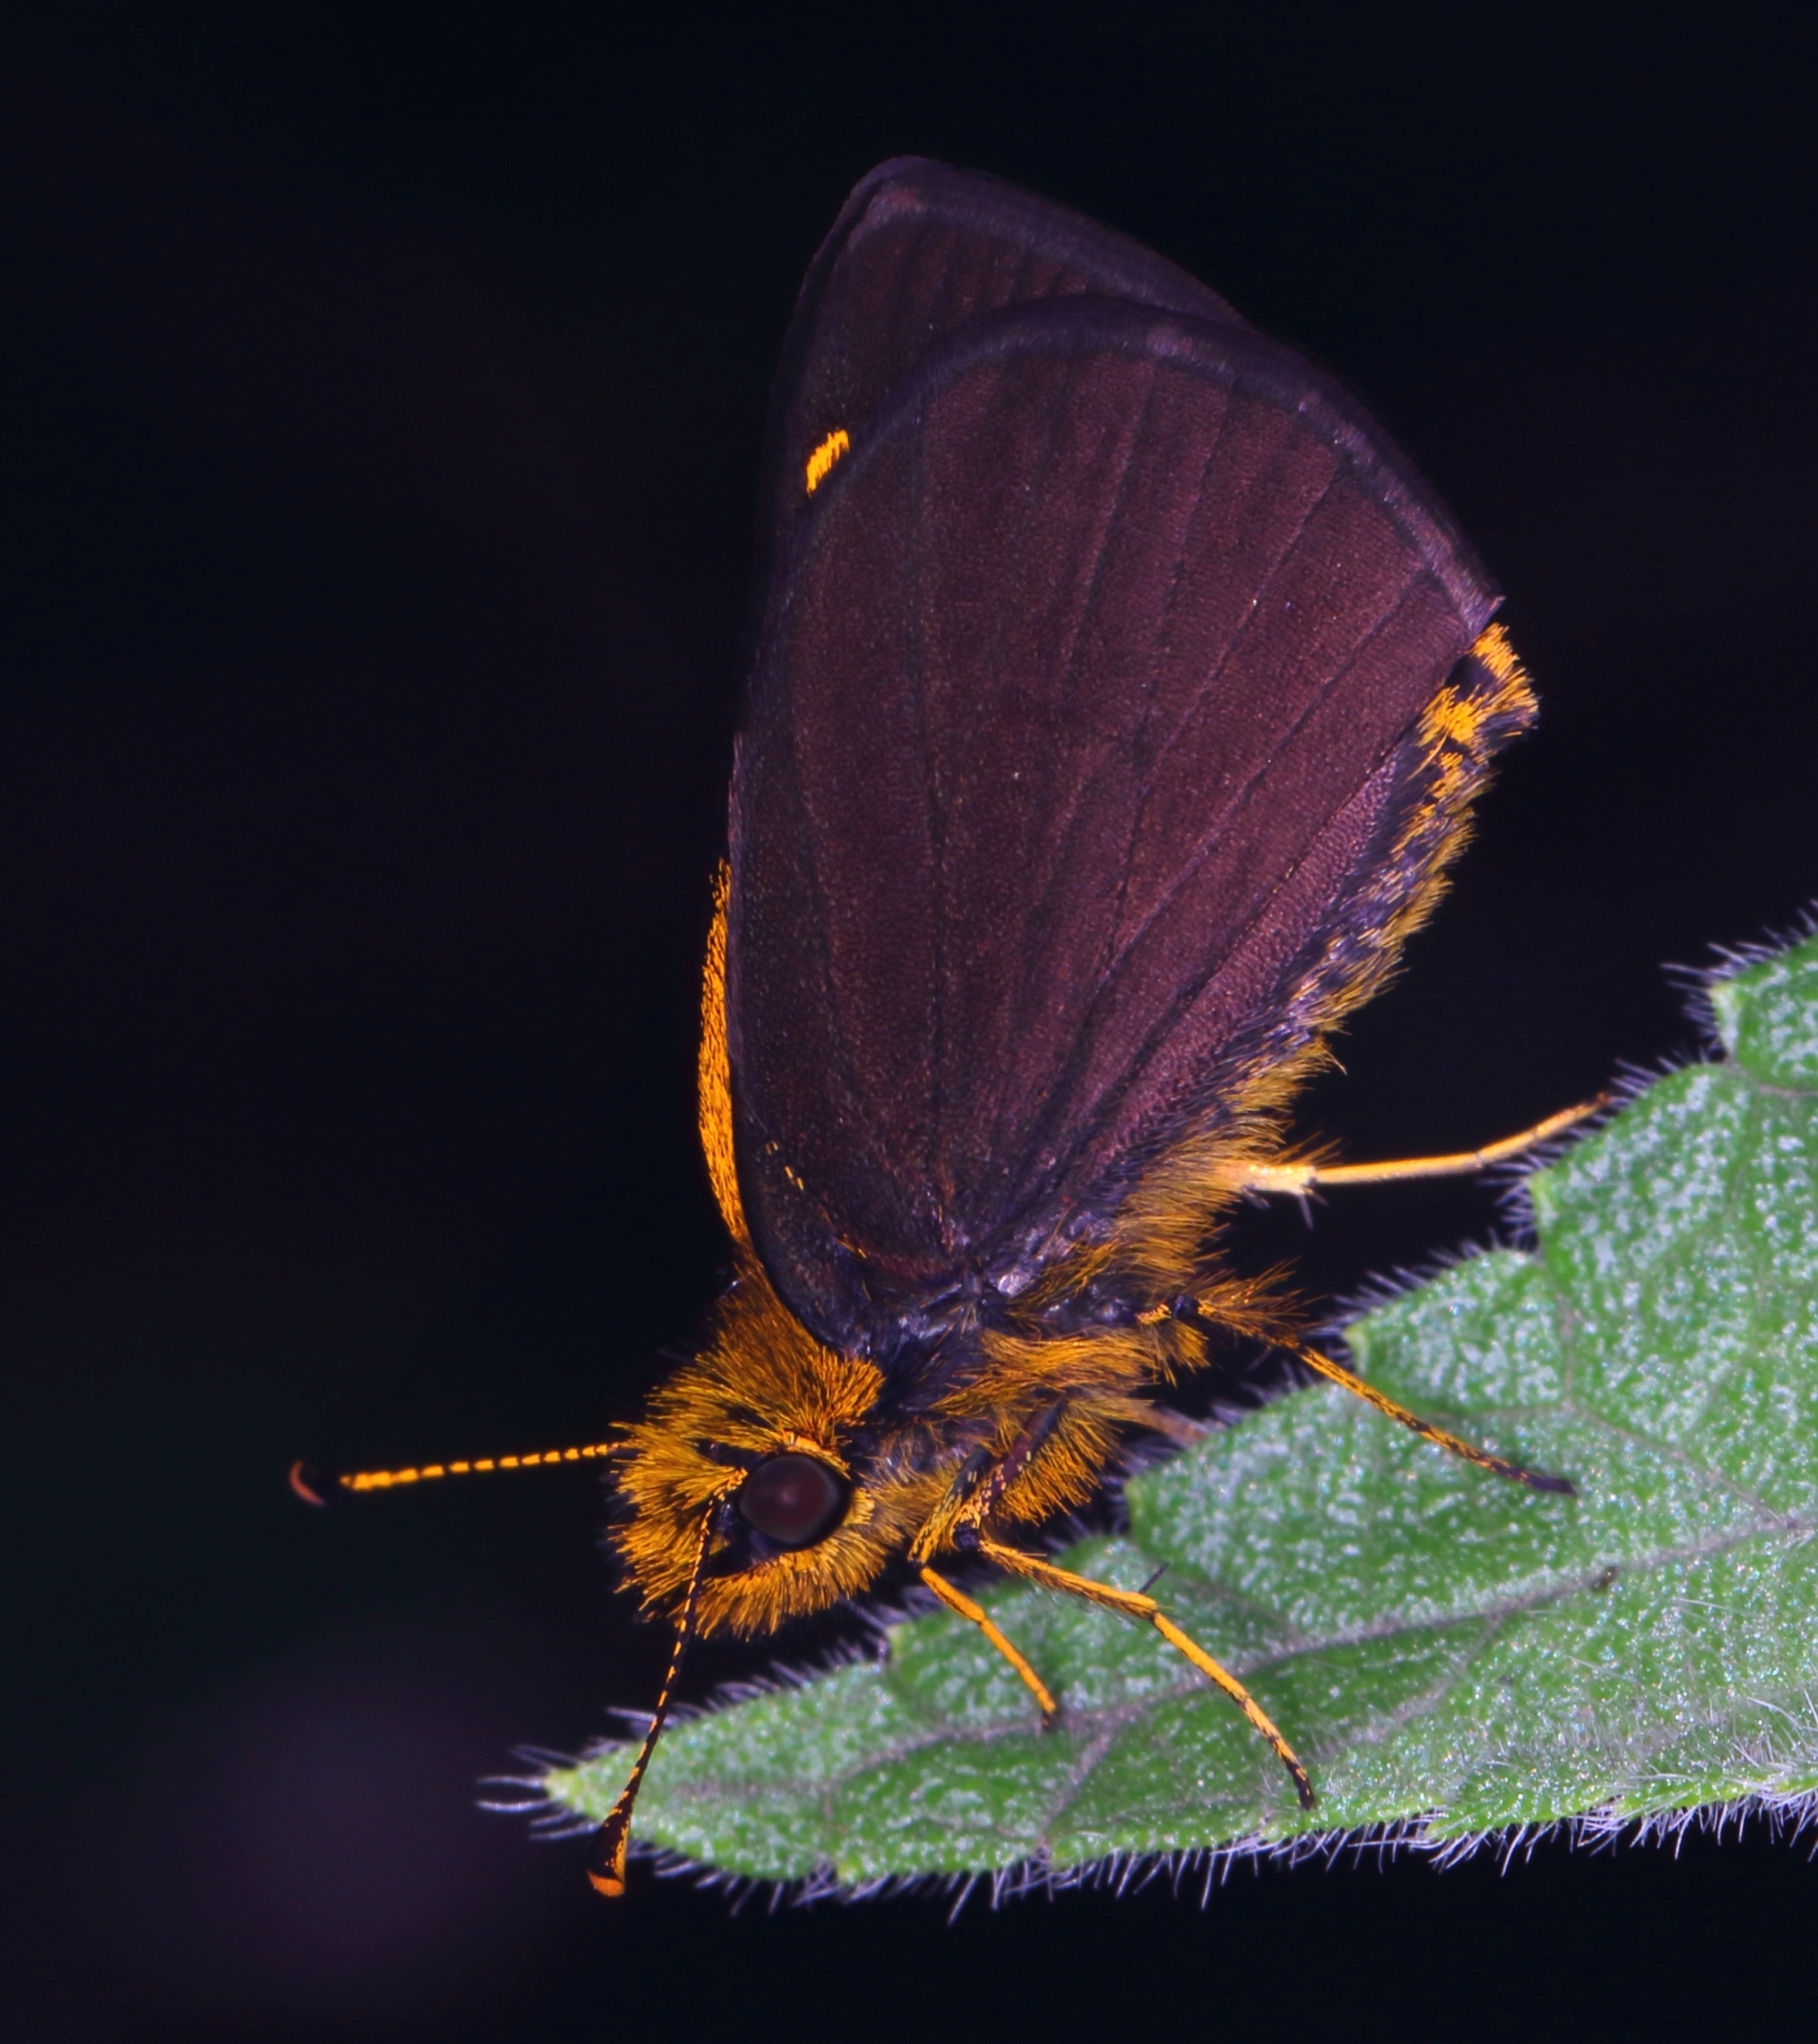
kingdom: Animalia
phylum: Arthropoda
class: Insecta
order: Lepidoptera
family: Hesperiidae
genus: Metisella
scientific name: Metisella metis
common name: Western gold-spotted sylph
